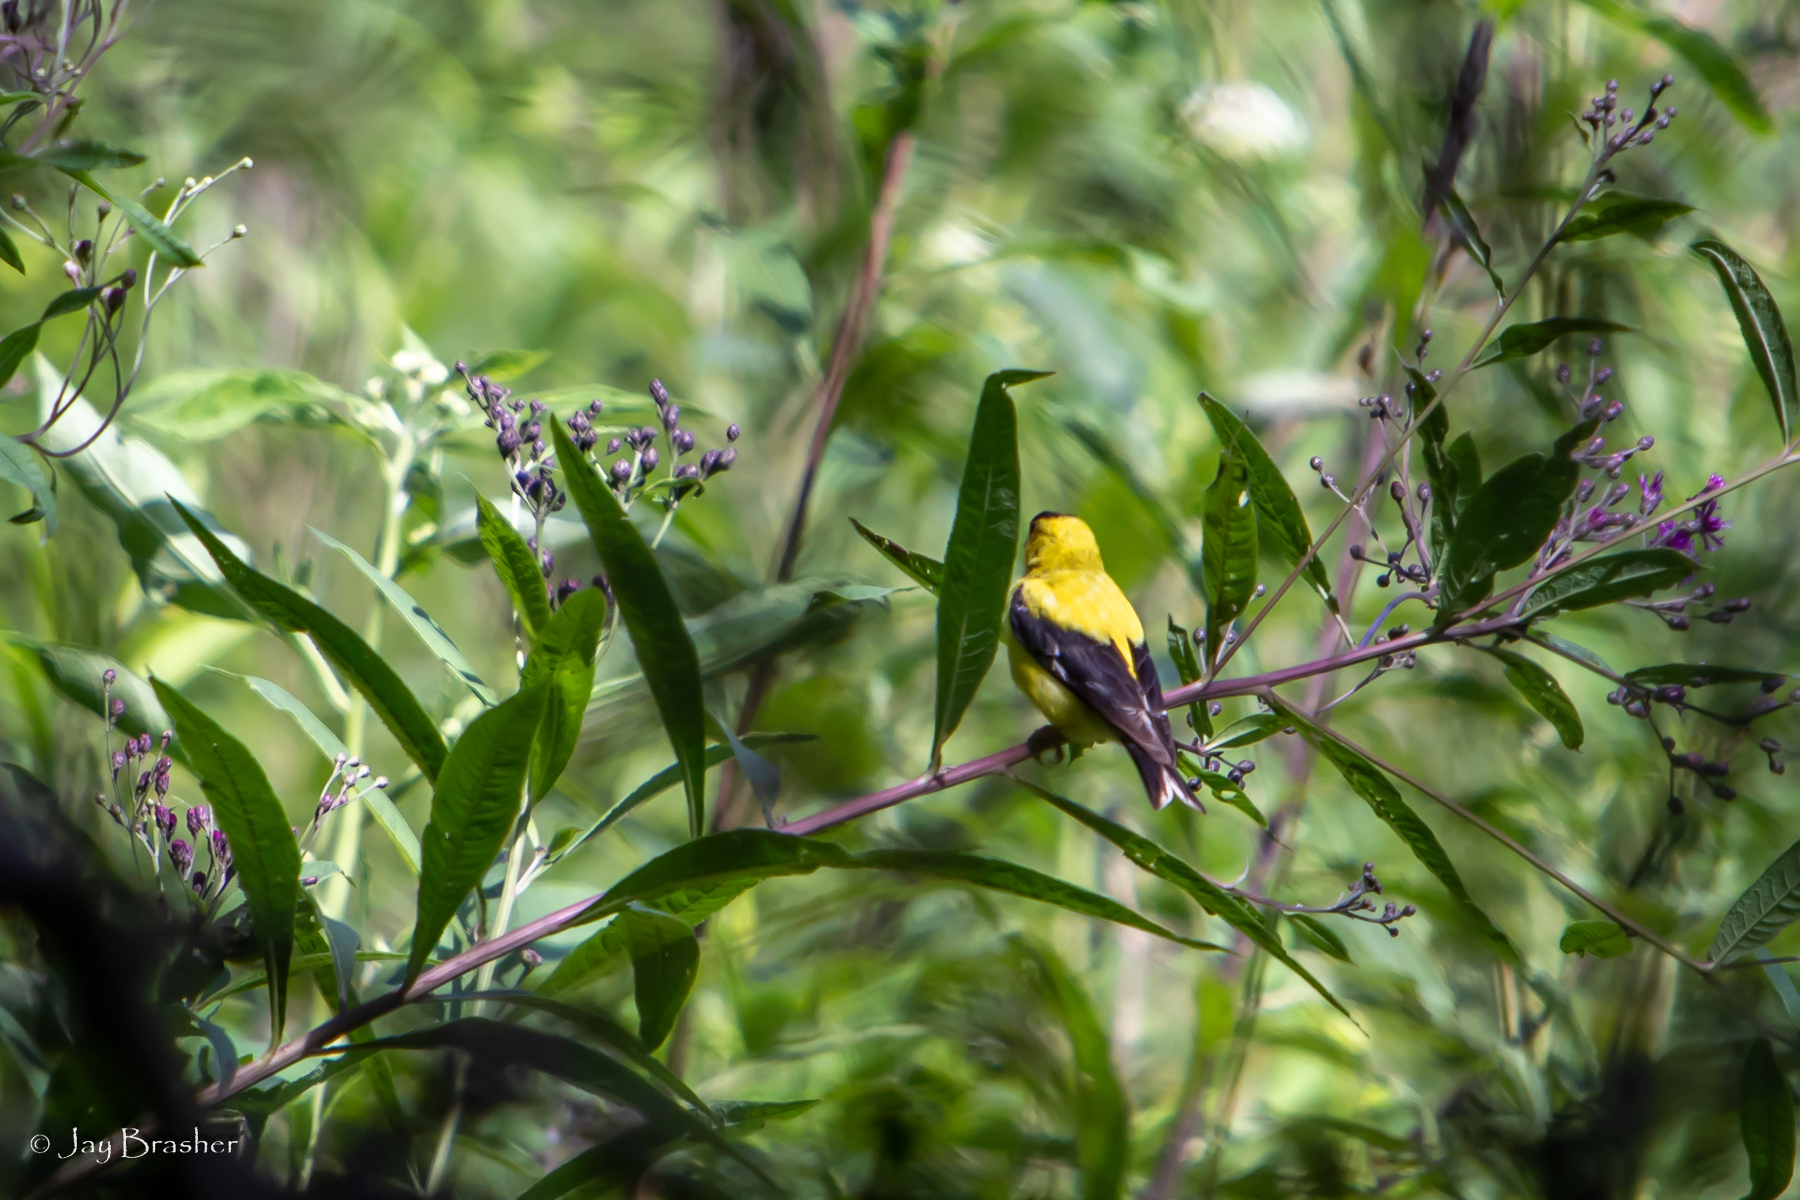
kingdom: Animalia
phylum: Chordata
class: Aves
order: Passeriformes
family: Fringillidae
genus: Spinus
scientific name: Spinus tristis
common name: American goldfinch
